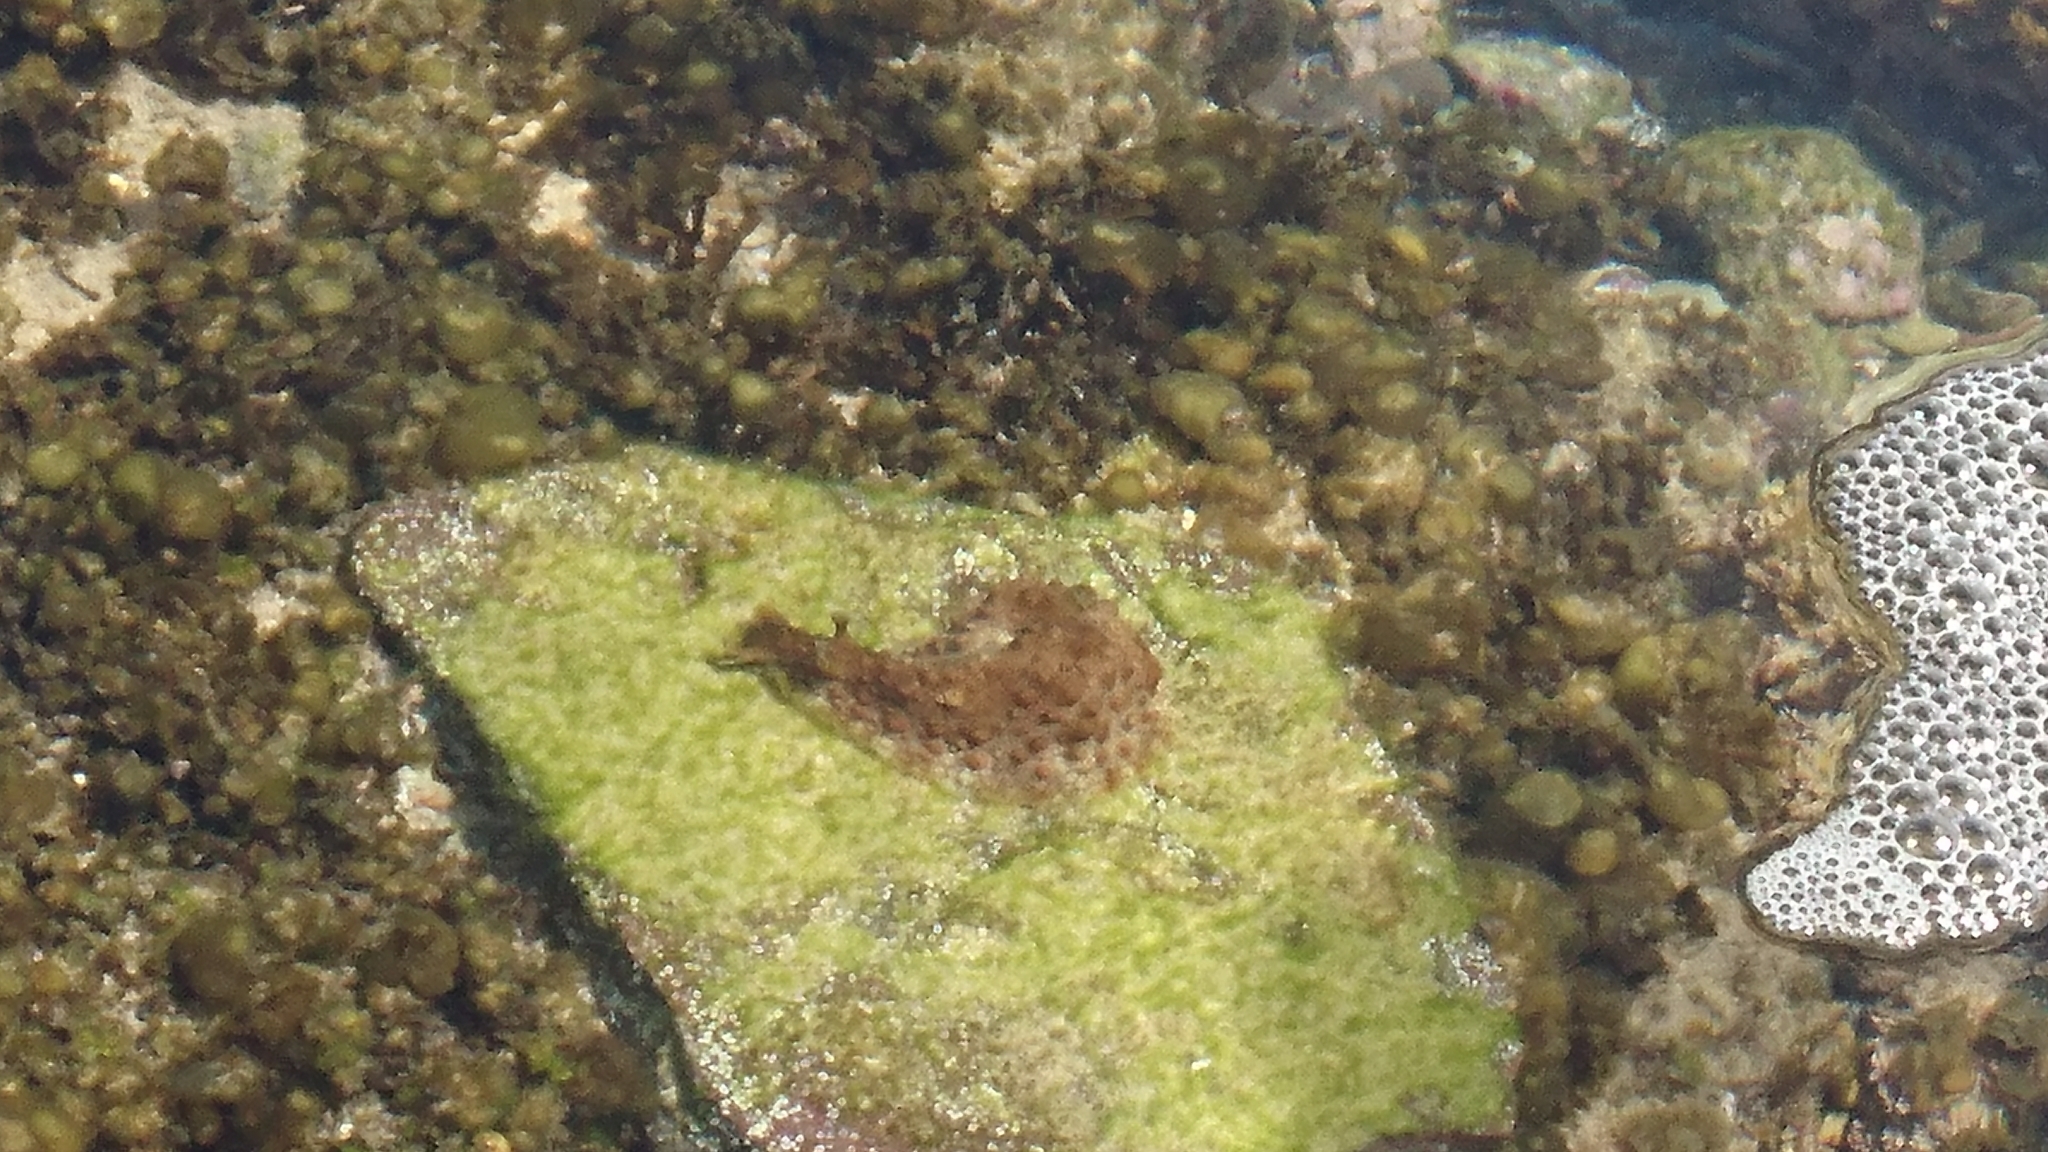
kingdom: Animalia
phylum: Mollusca
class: Gastropoda
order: Aplysiida
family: Aplysiidae
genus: Dolabrifera
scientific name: Dolabrifera brazieri
